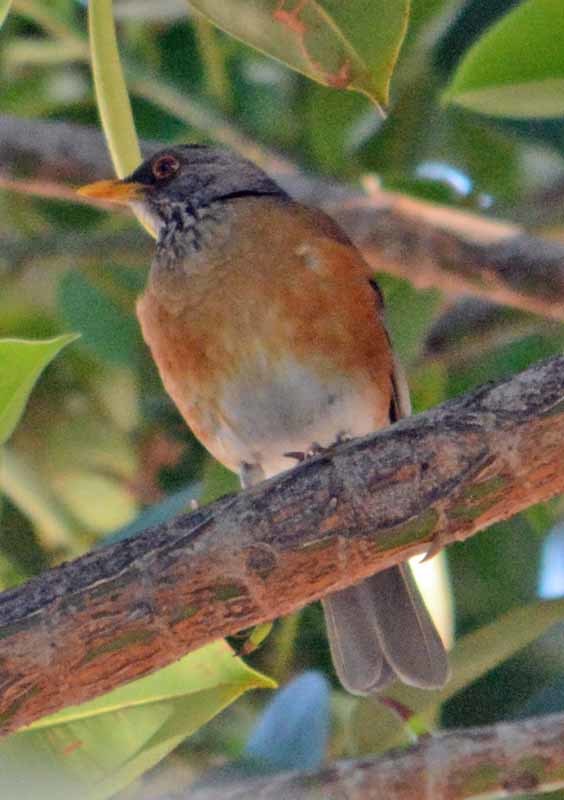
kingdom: Animalia
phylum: Chordata
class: Aves
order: Passeriformes
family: Turdidae
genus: Turdus
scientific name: Turdus rufopalliatus
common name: Rufous-backed robin
